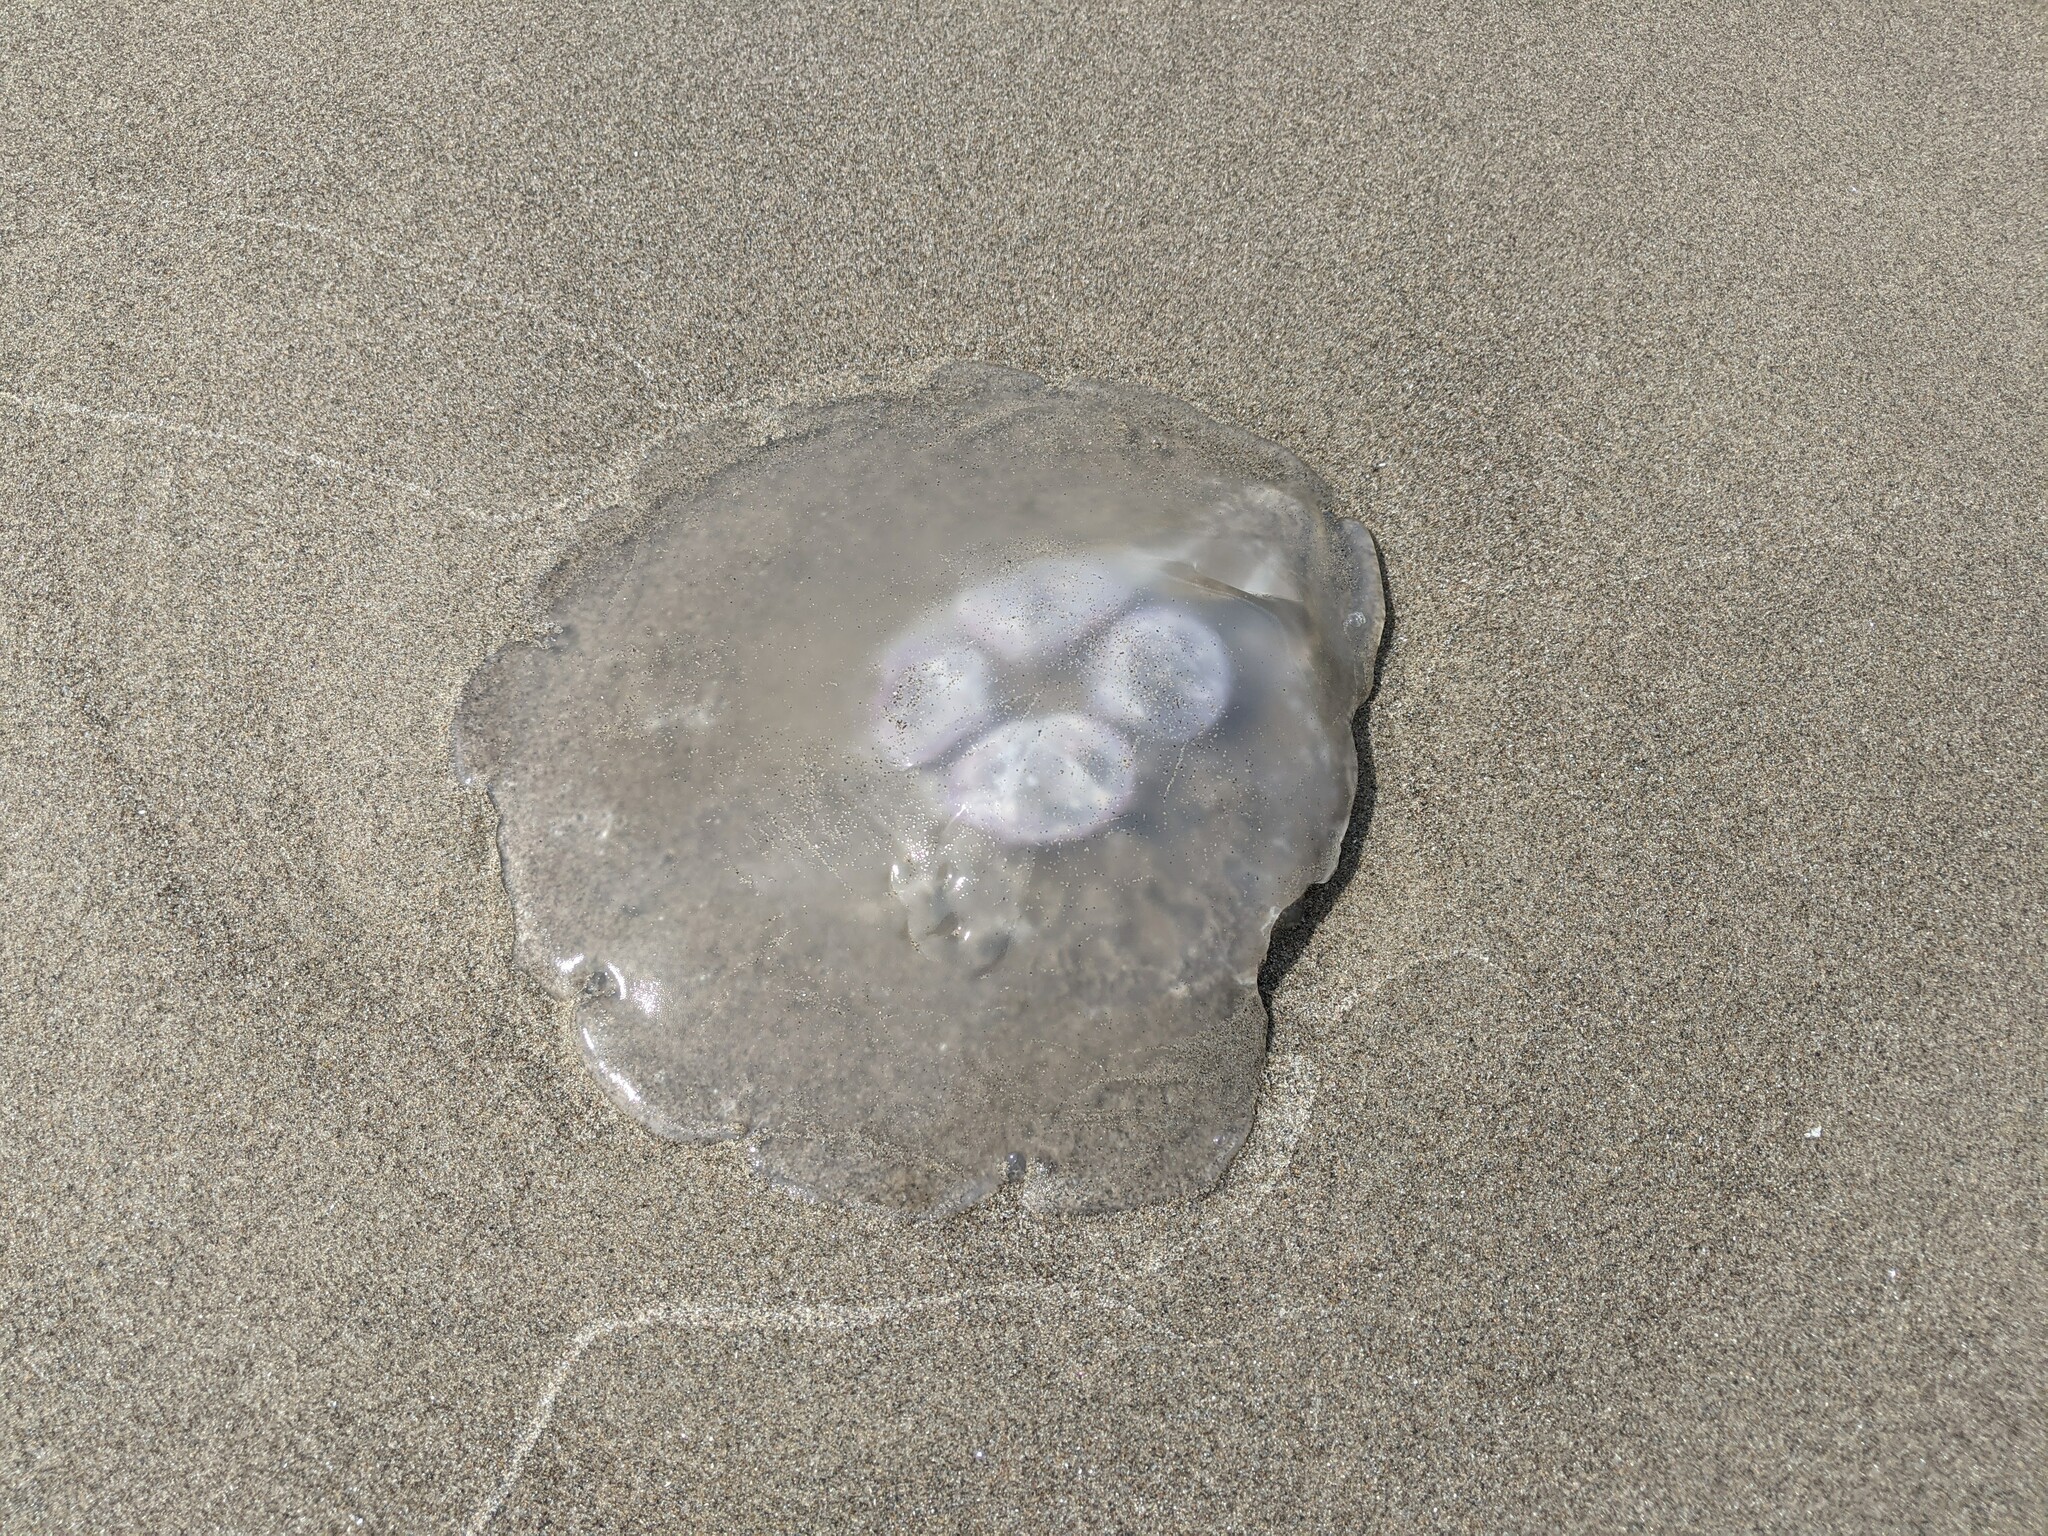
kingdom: Animalia
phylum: Cnidaria
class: Scyphozoa
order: Semaeostomeae
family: Ulmaridae
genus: Aurelia
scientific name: Aurelia labiata
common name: Pacific moon jelly
